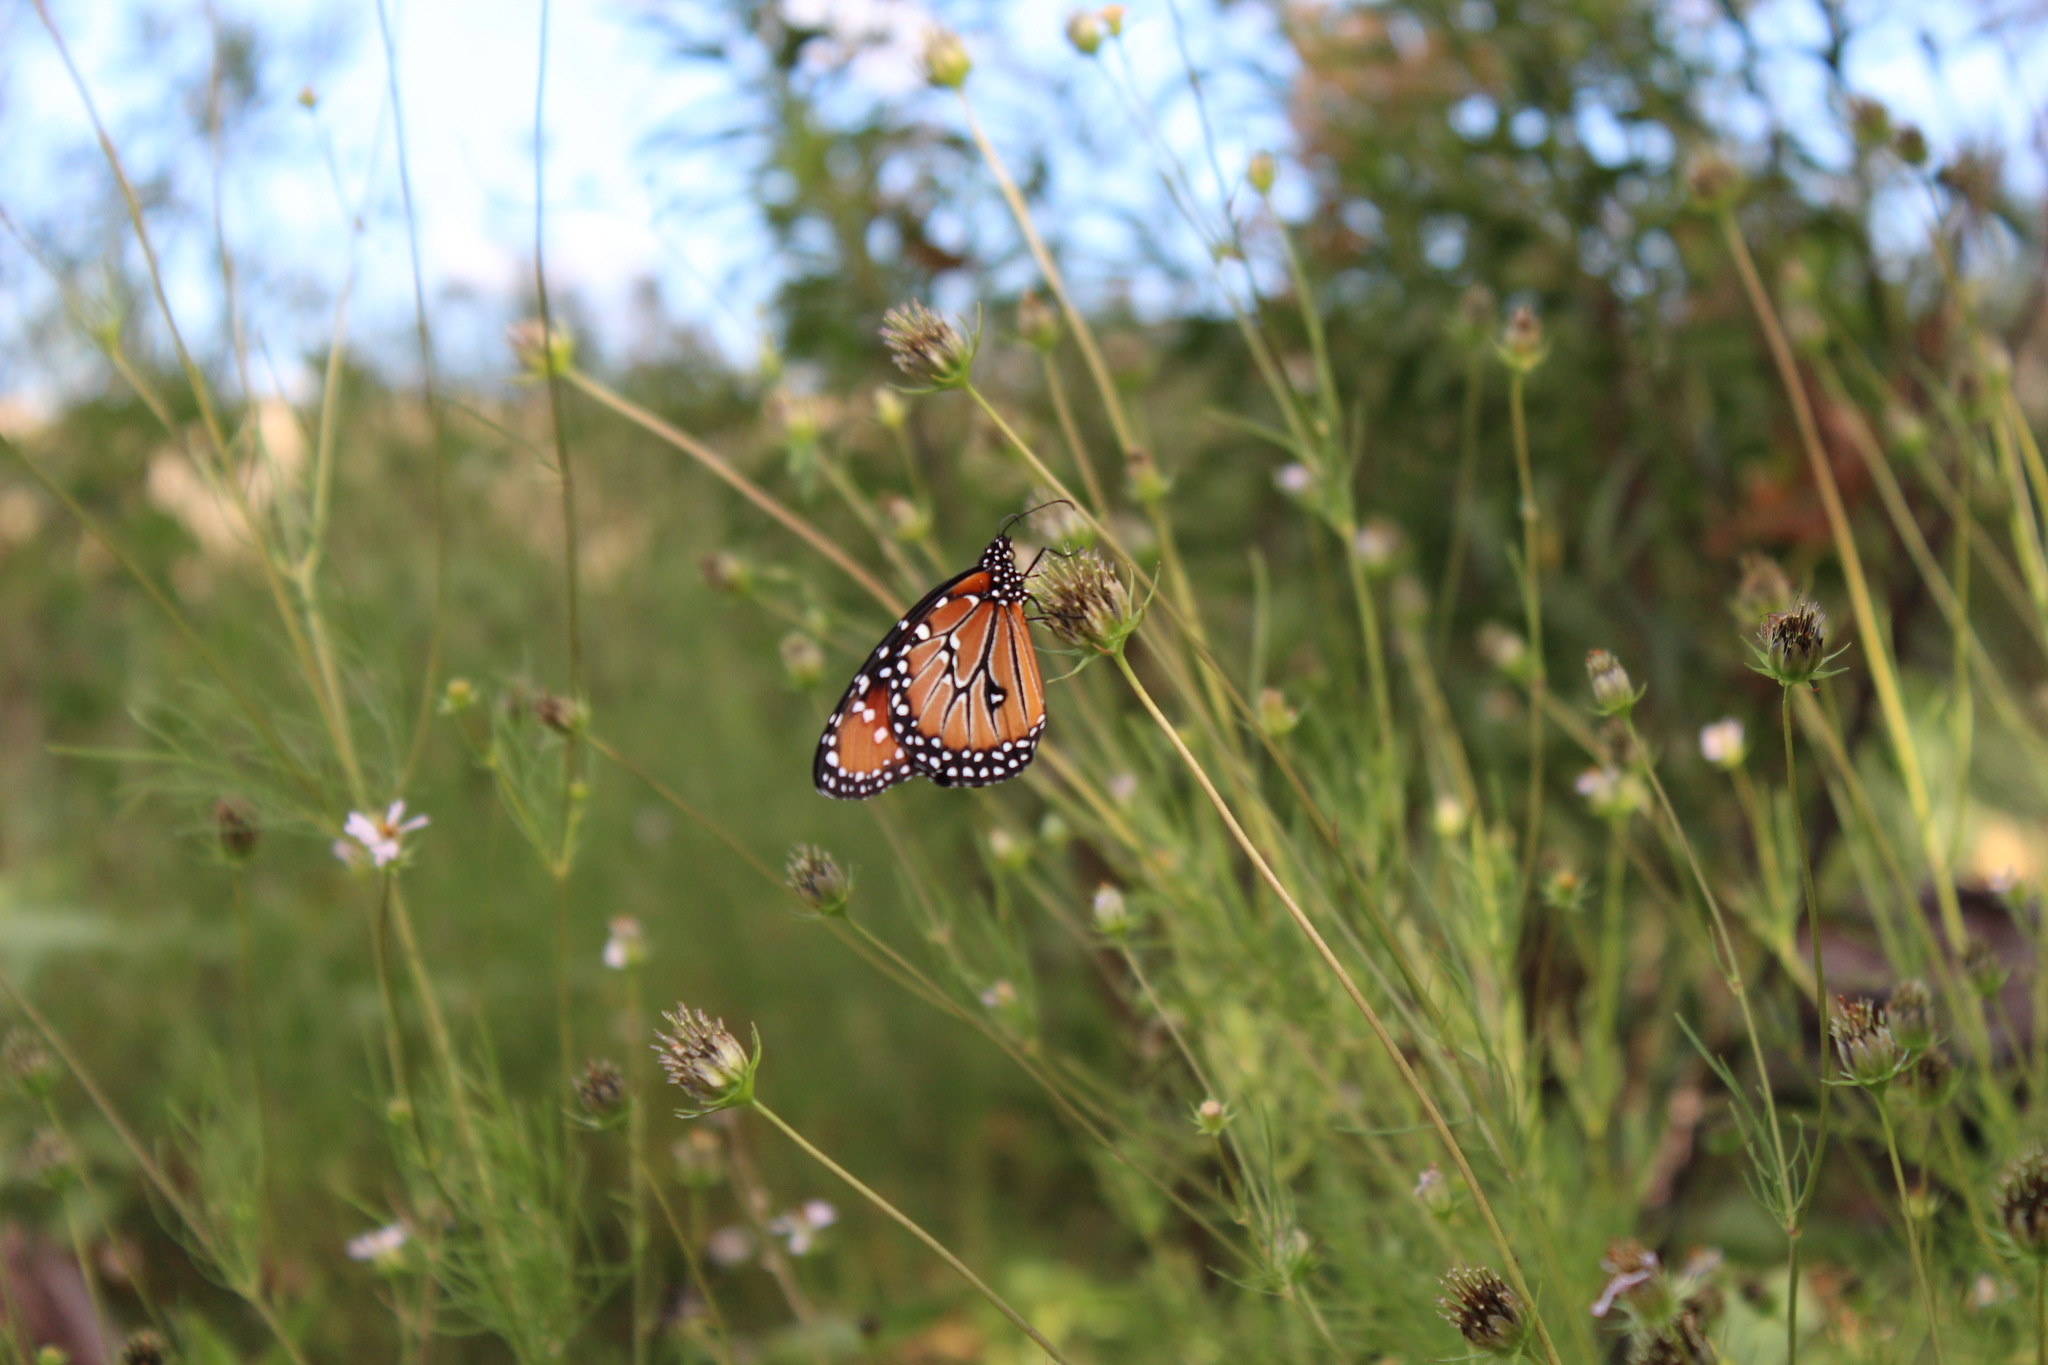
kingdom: Animalia
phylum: Arthropoda
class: Insecta
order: Lepidoptera
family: Nymphalidae
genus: Danaus
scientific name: Danaus gilippus
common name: Queen
